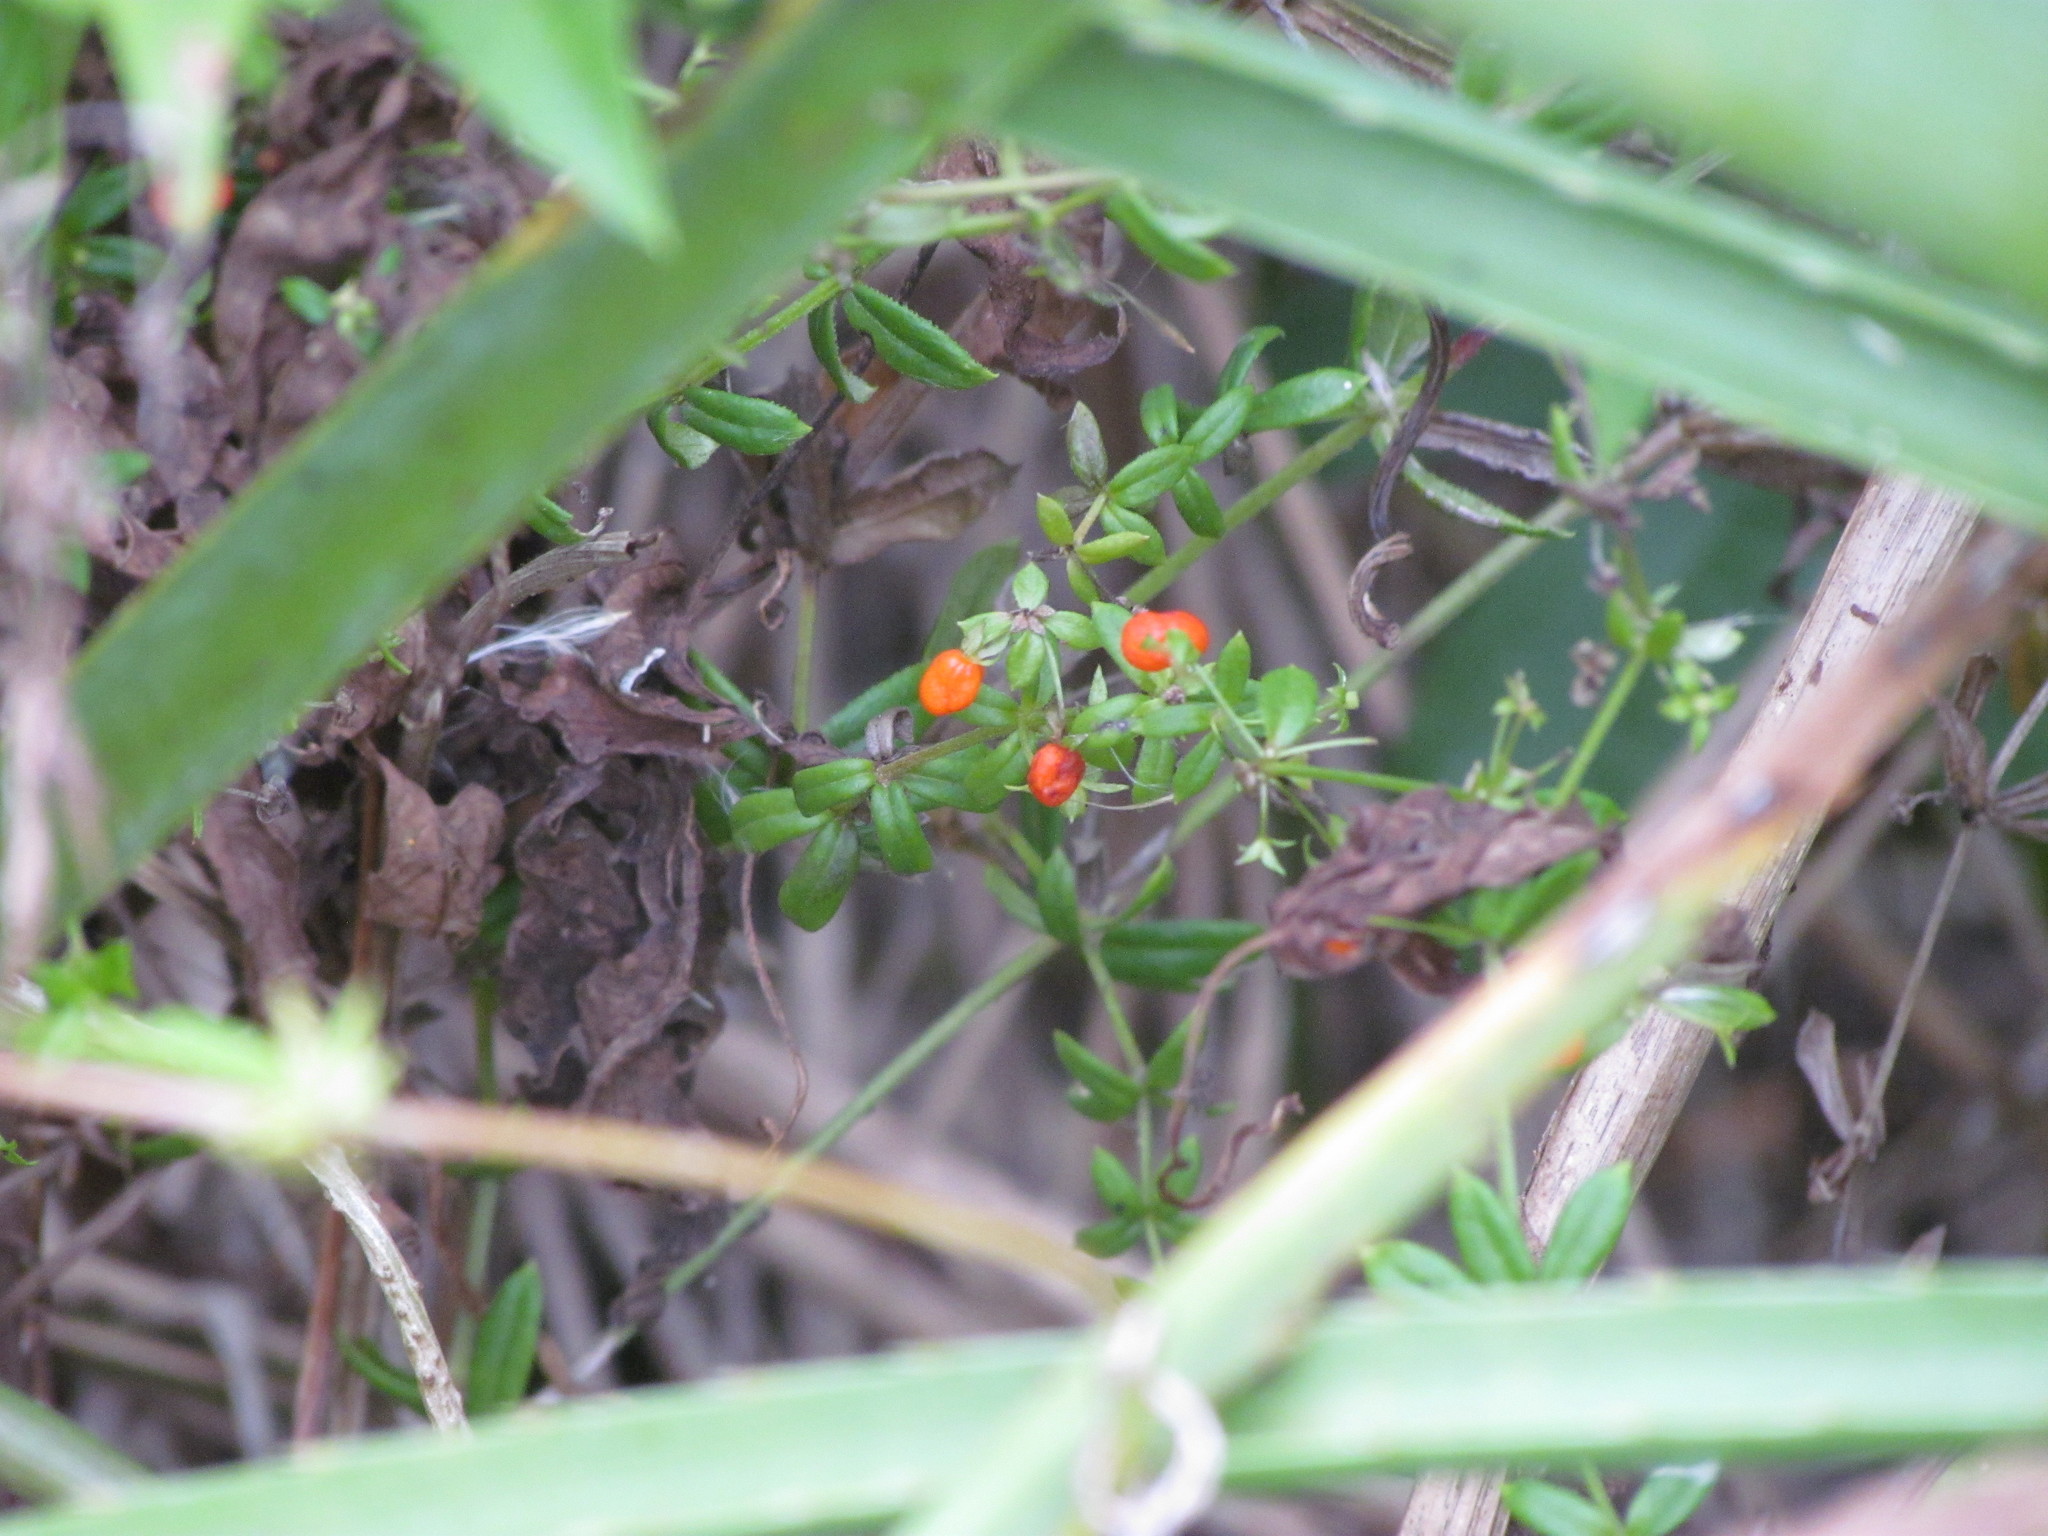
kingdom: Plantae
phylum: Tracheophyta
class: Magnoliopsida
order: Gentianales
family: Rubiaceae
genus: Galium
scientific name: Galium hypocarpium
